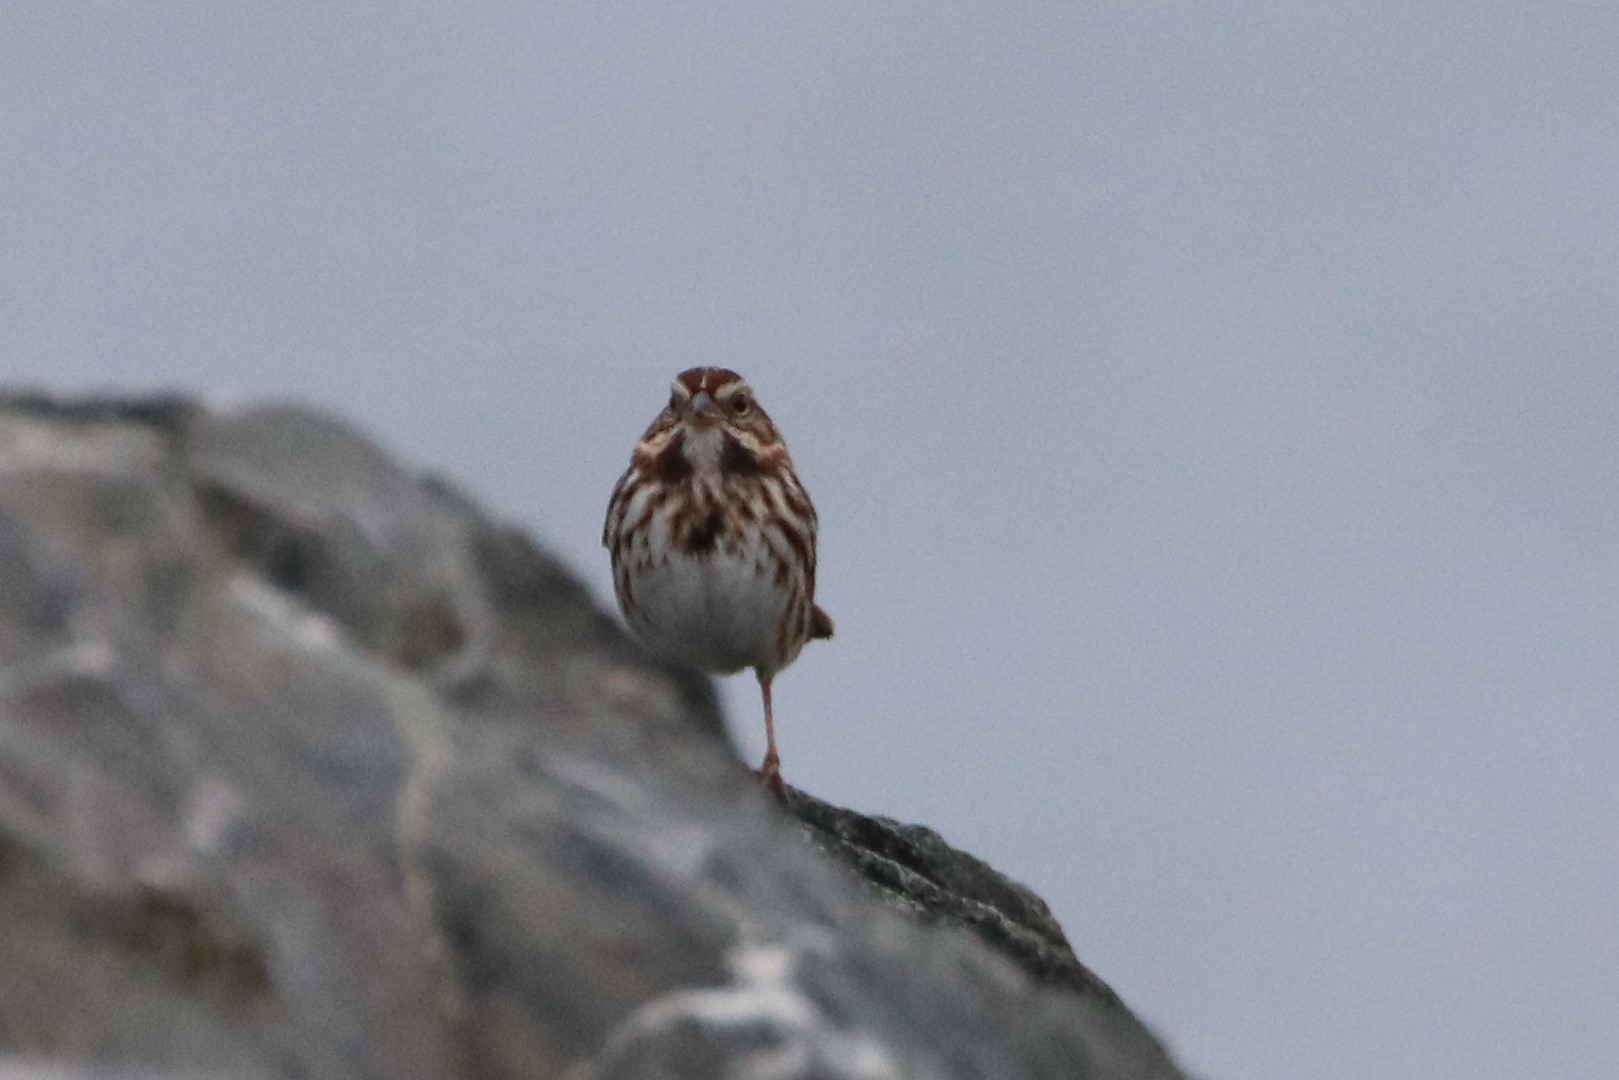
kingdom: Animalia
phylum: Chordata
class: Aves
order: Passeriformes
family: Passerellidae
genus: Melospiza
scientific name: Melospiza melodia
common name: Song sparrow
